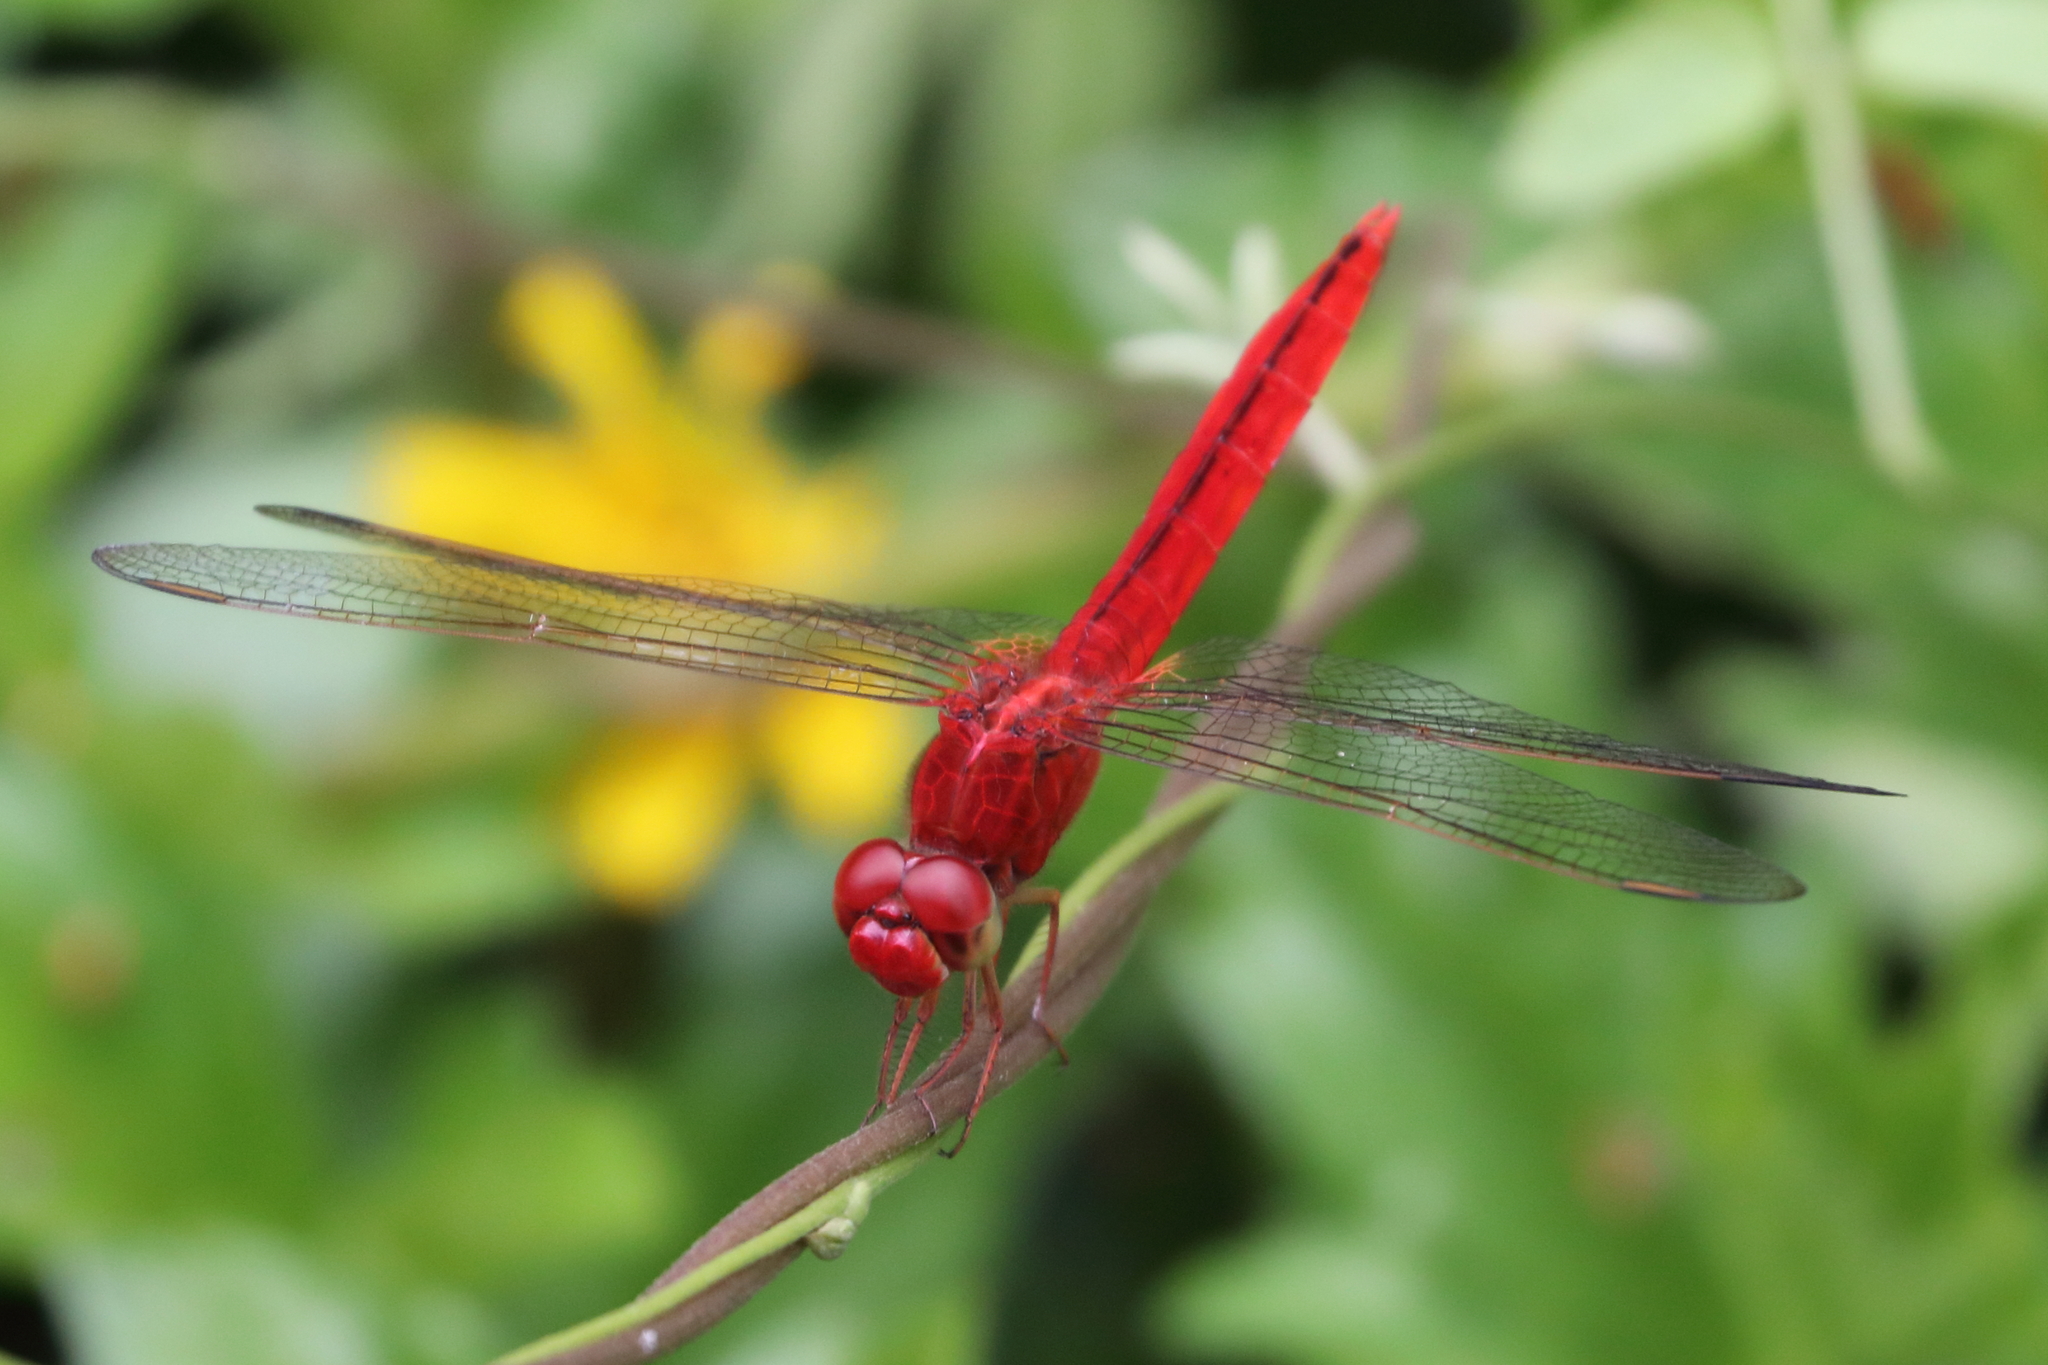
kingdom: Animalia
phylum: Arthropoda
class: Insecta
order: Odonata
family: Libellulidae
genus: Crocothemis
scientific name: Crocothemis servilia
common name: Scarlet skimmer
